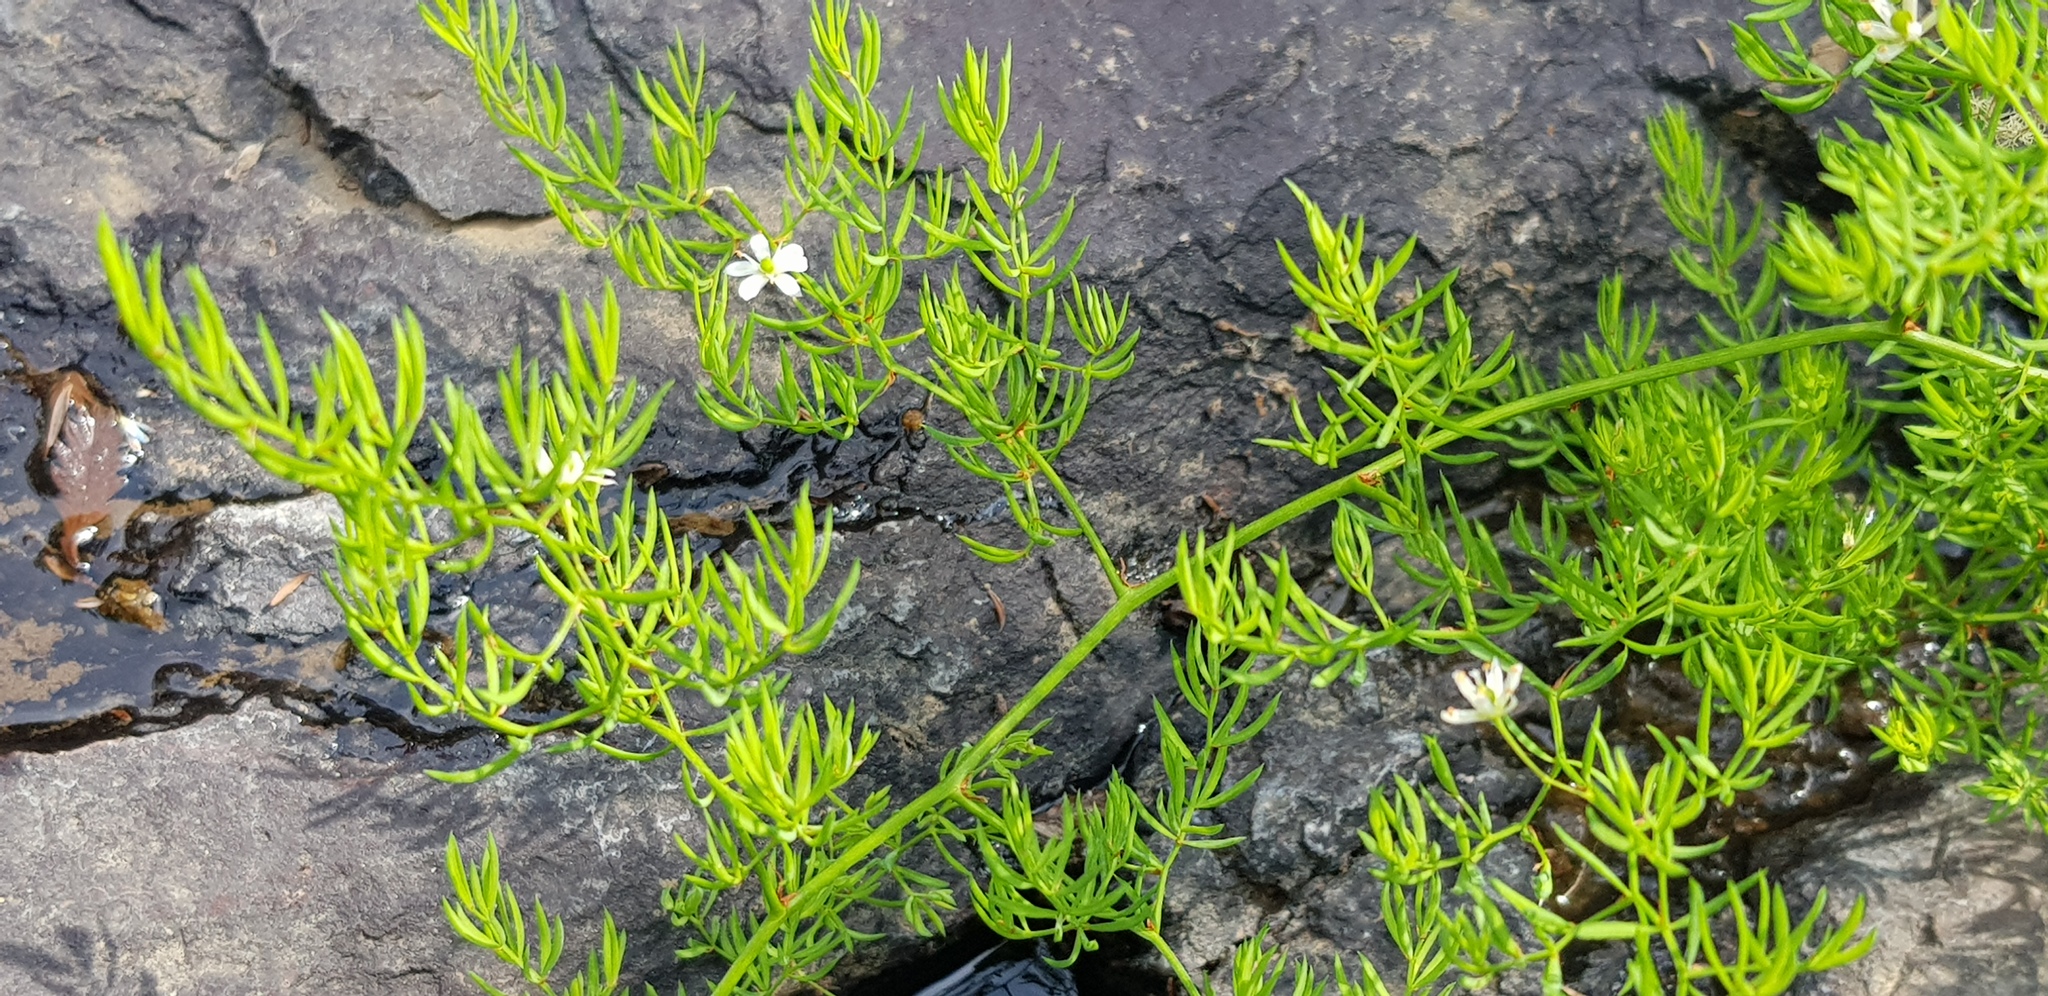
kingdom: Plantae
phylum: Tracheophyta
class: Liliopsida
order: Asparagales
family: Asparagaceae
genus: Asparagus
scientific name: Asparagus ramosissimus
